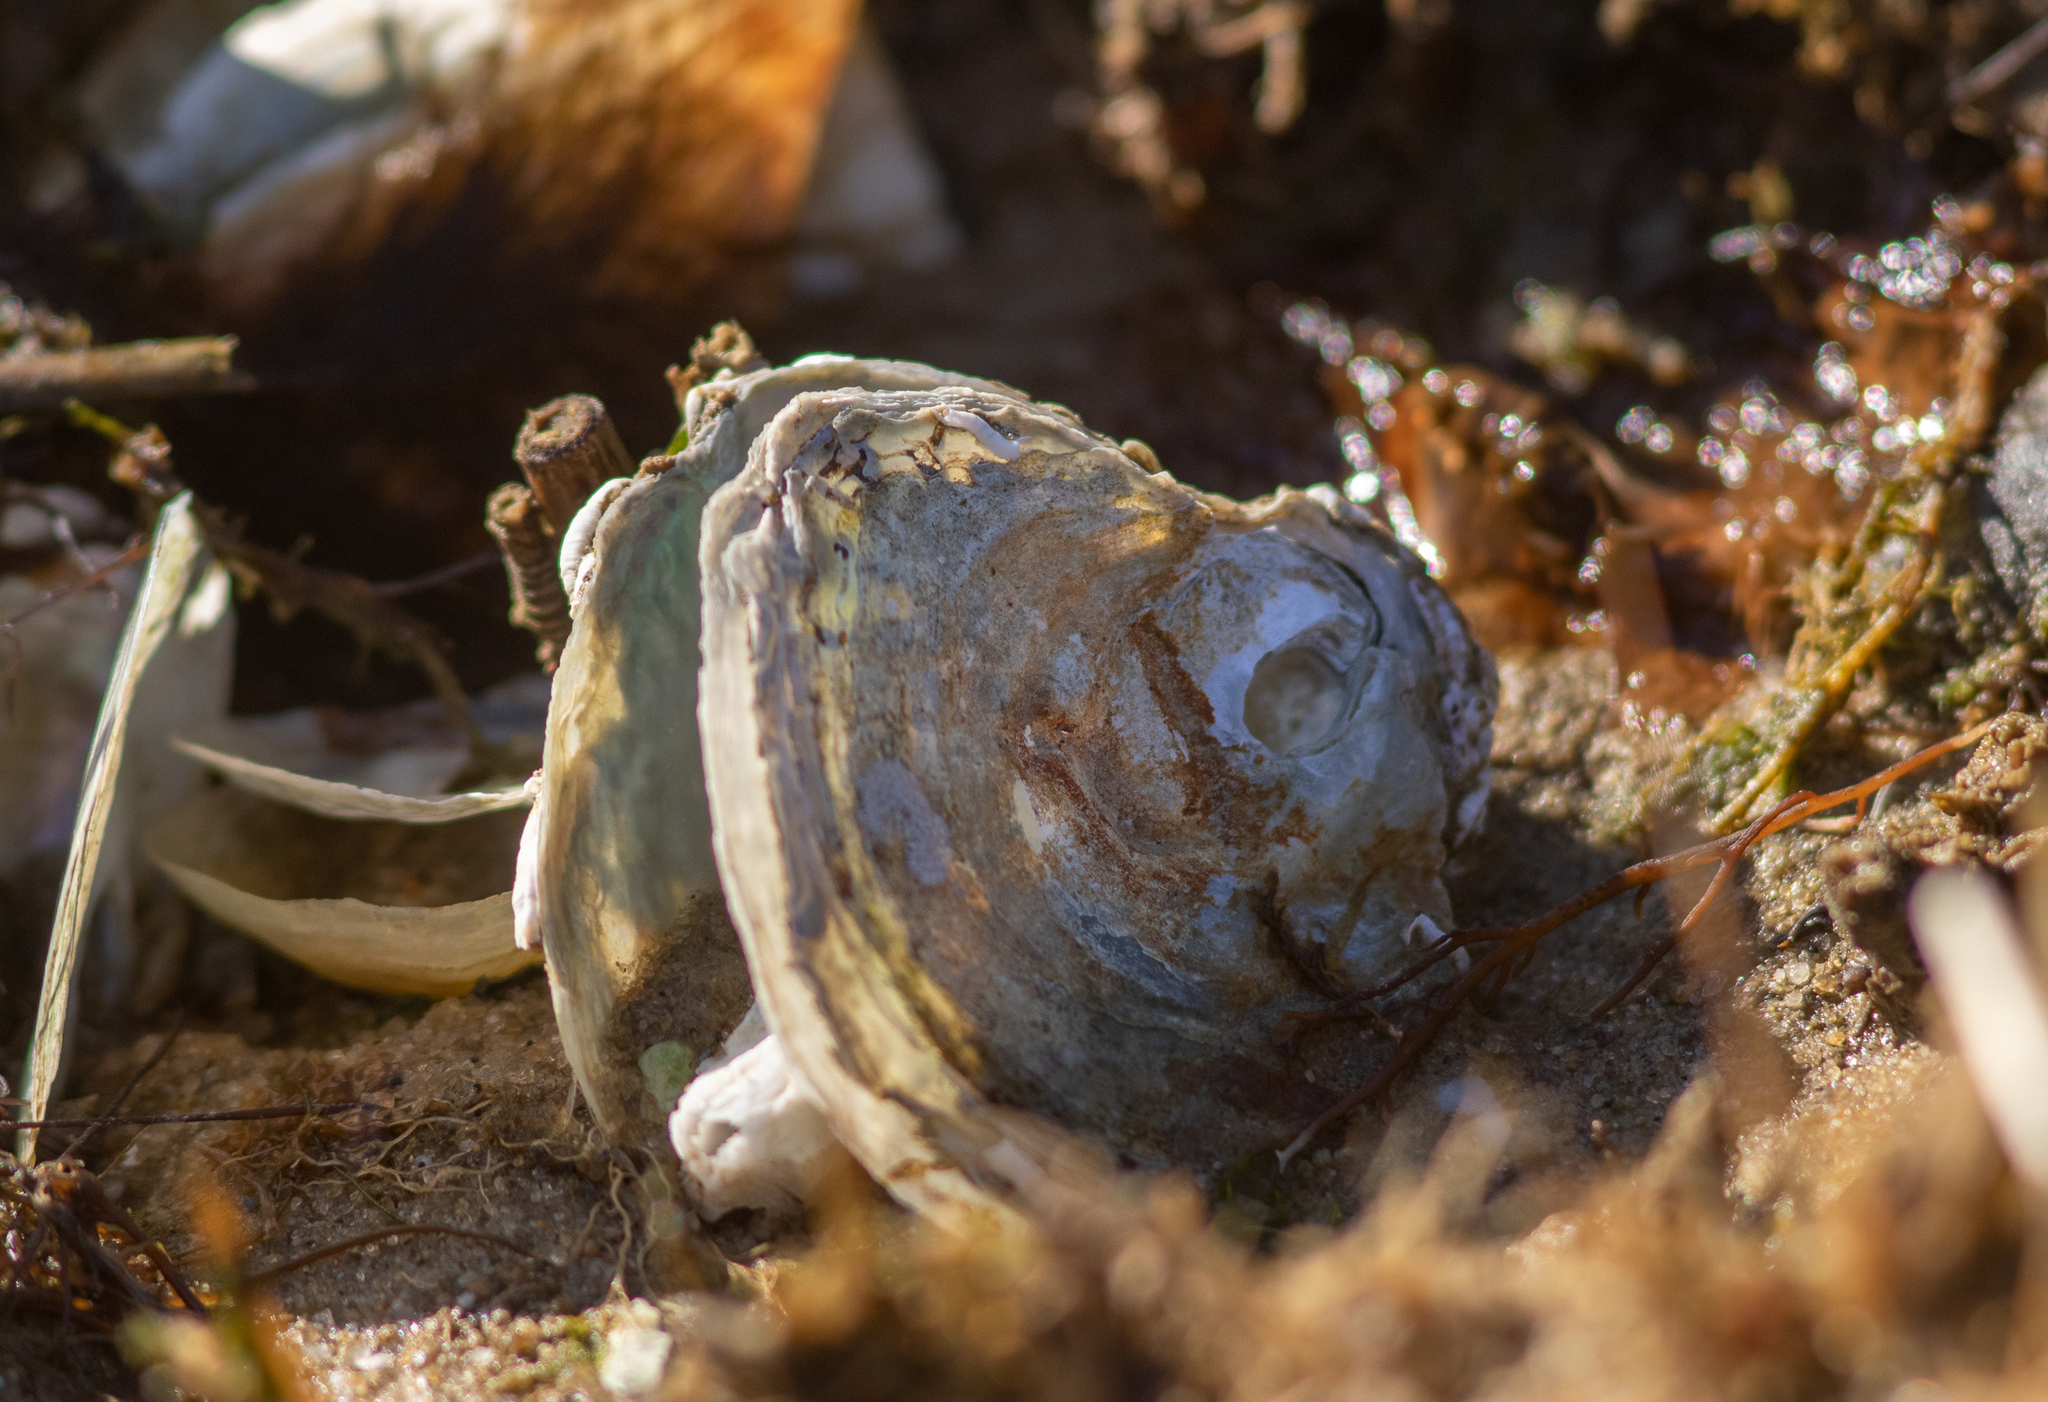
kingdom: Animalia
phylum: Mollusca
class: Bivalvia
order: Pectinida
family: Anomiidae
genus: Anomia
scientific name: Anomia simplex
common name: Common jingle shell
